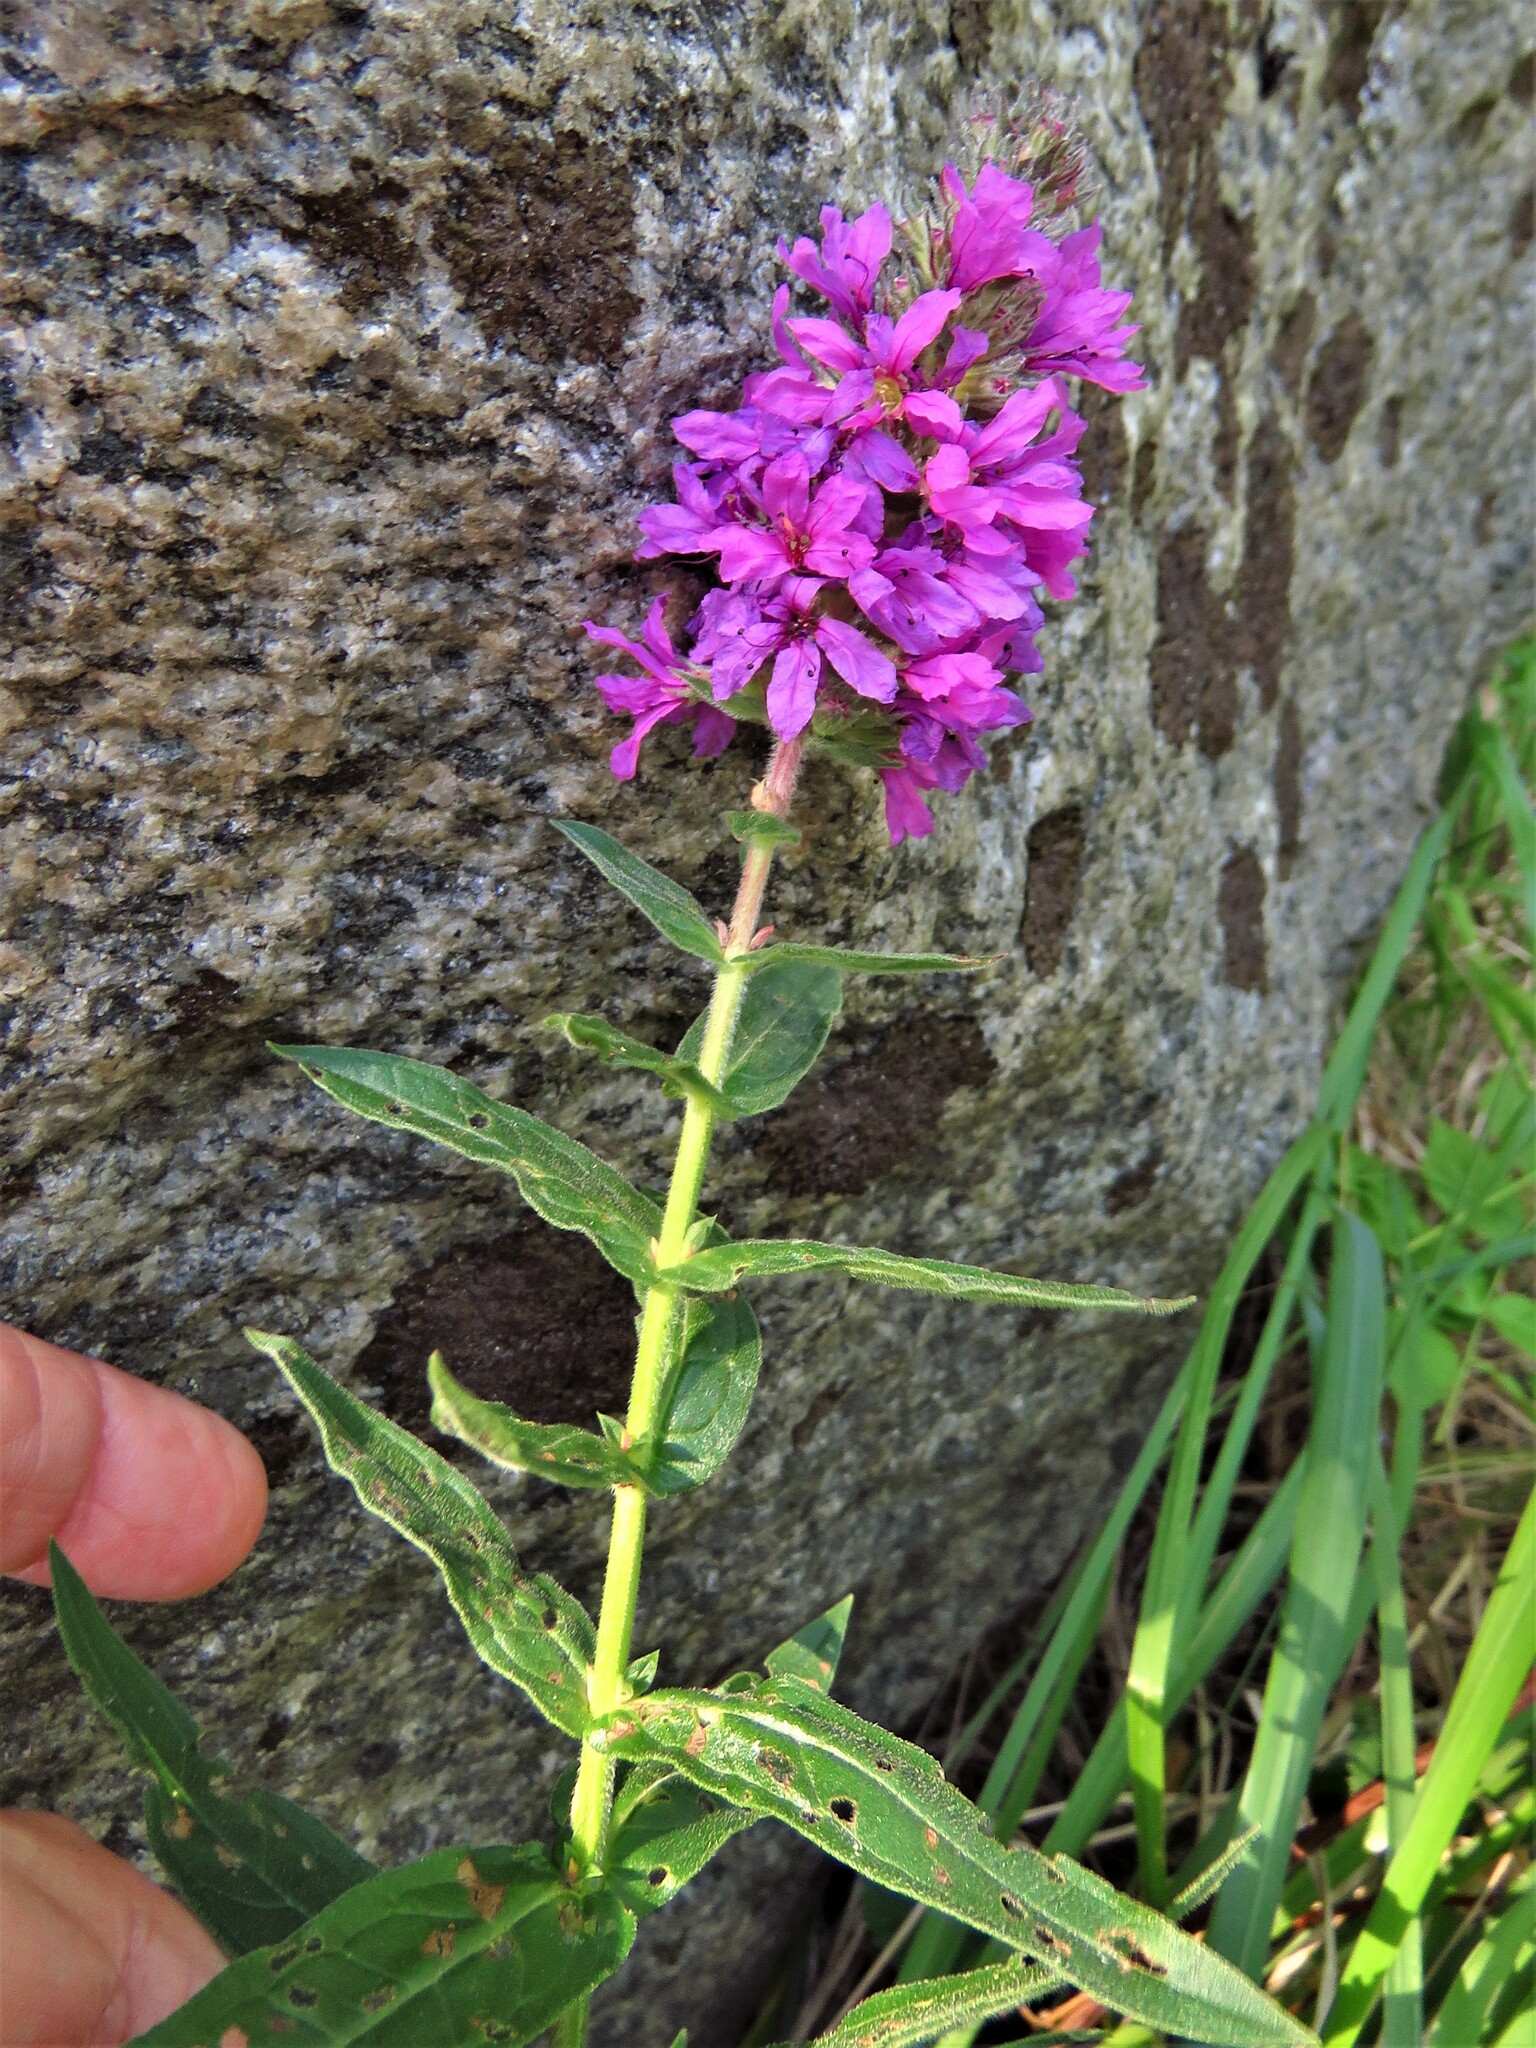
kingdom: Plantae
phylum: Tracheophyta
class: Magnoliopsida
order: Myrtales
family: Lythraceae
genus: Lythrum
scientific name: Lythrum salicaria
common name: Purple loosestrife
